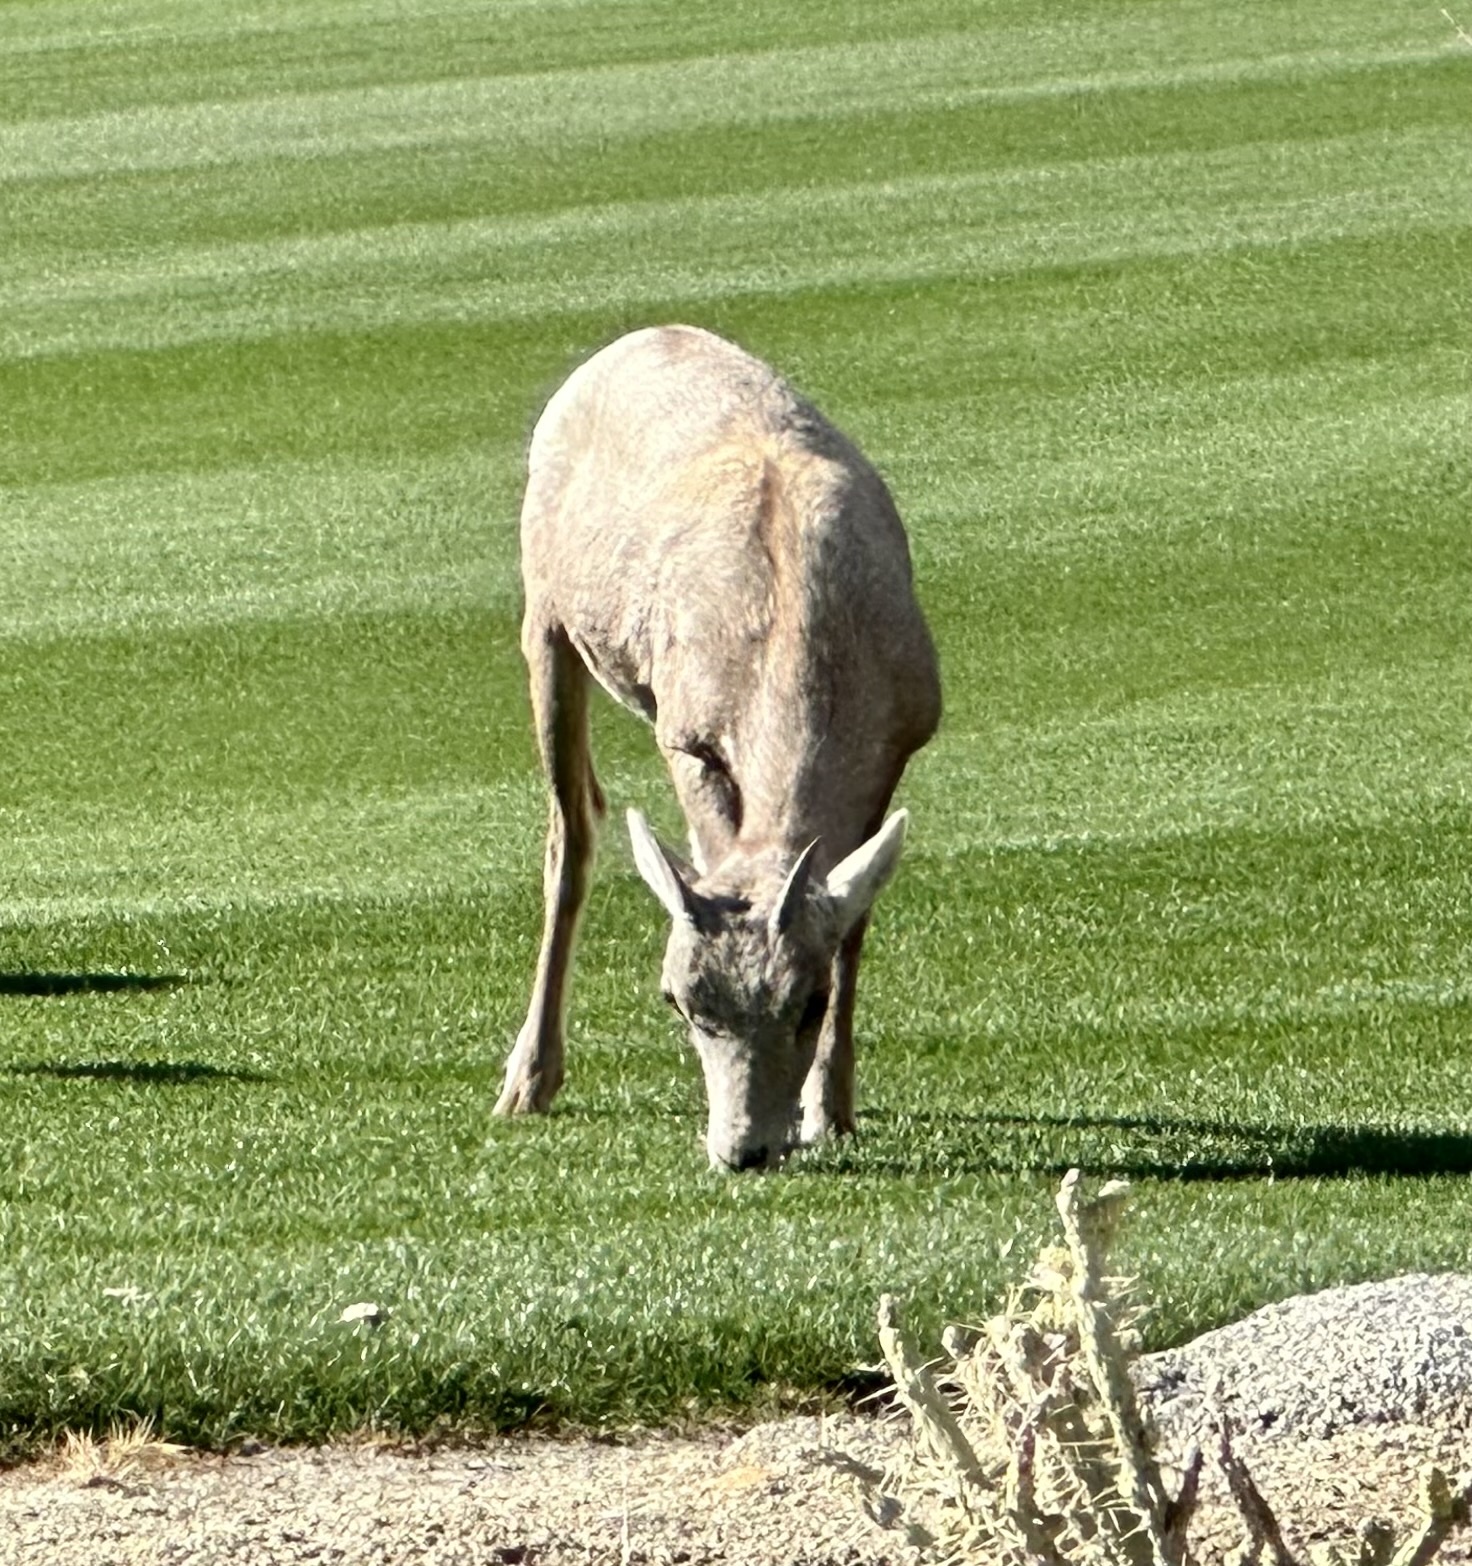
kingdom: Animalia
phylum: Chordata
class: Mammalia
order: Artiodactyla
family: Bovidae
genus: Ovis
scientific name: Ovis canadensis
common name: Bighorn sheep
